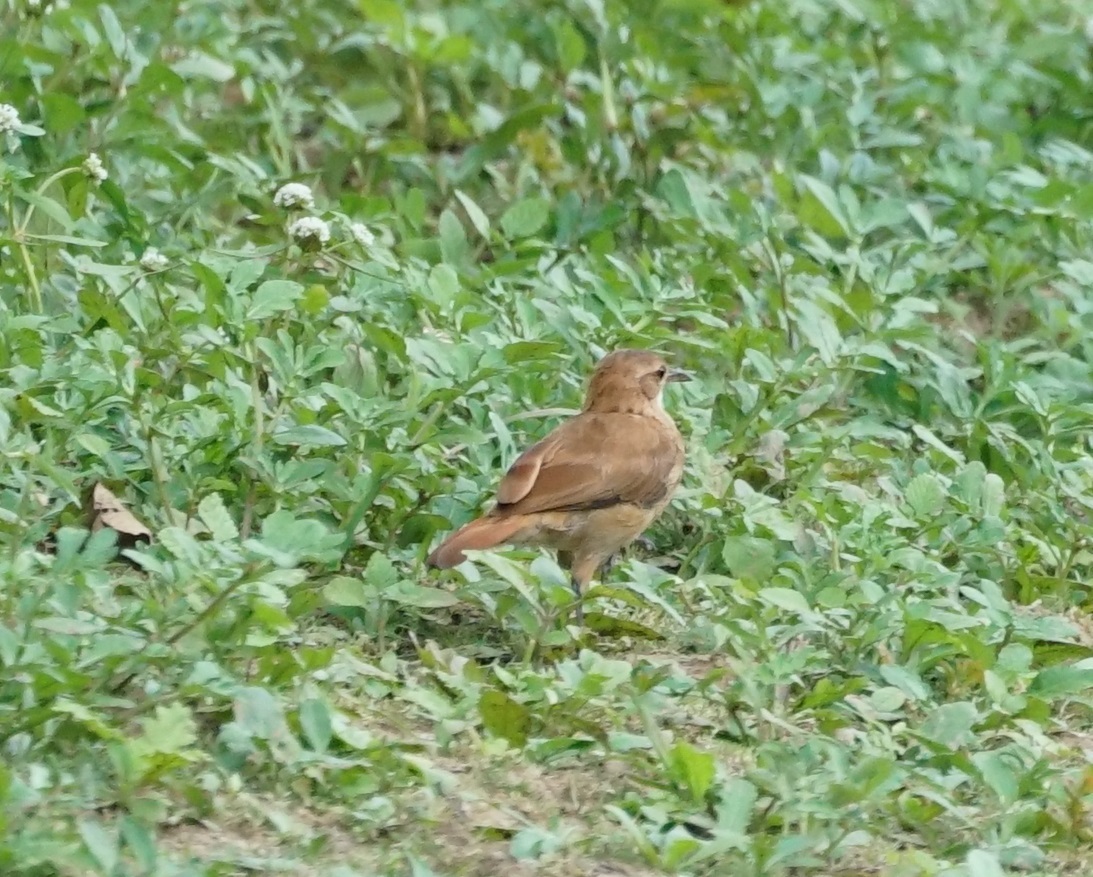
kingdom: Animalia
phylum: Chordata
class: Aves
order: Passeriformes
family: Furnariidae
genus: Furnarius
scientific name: Furnarius rufus
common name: Rufous hornero
